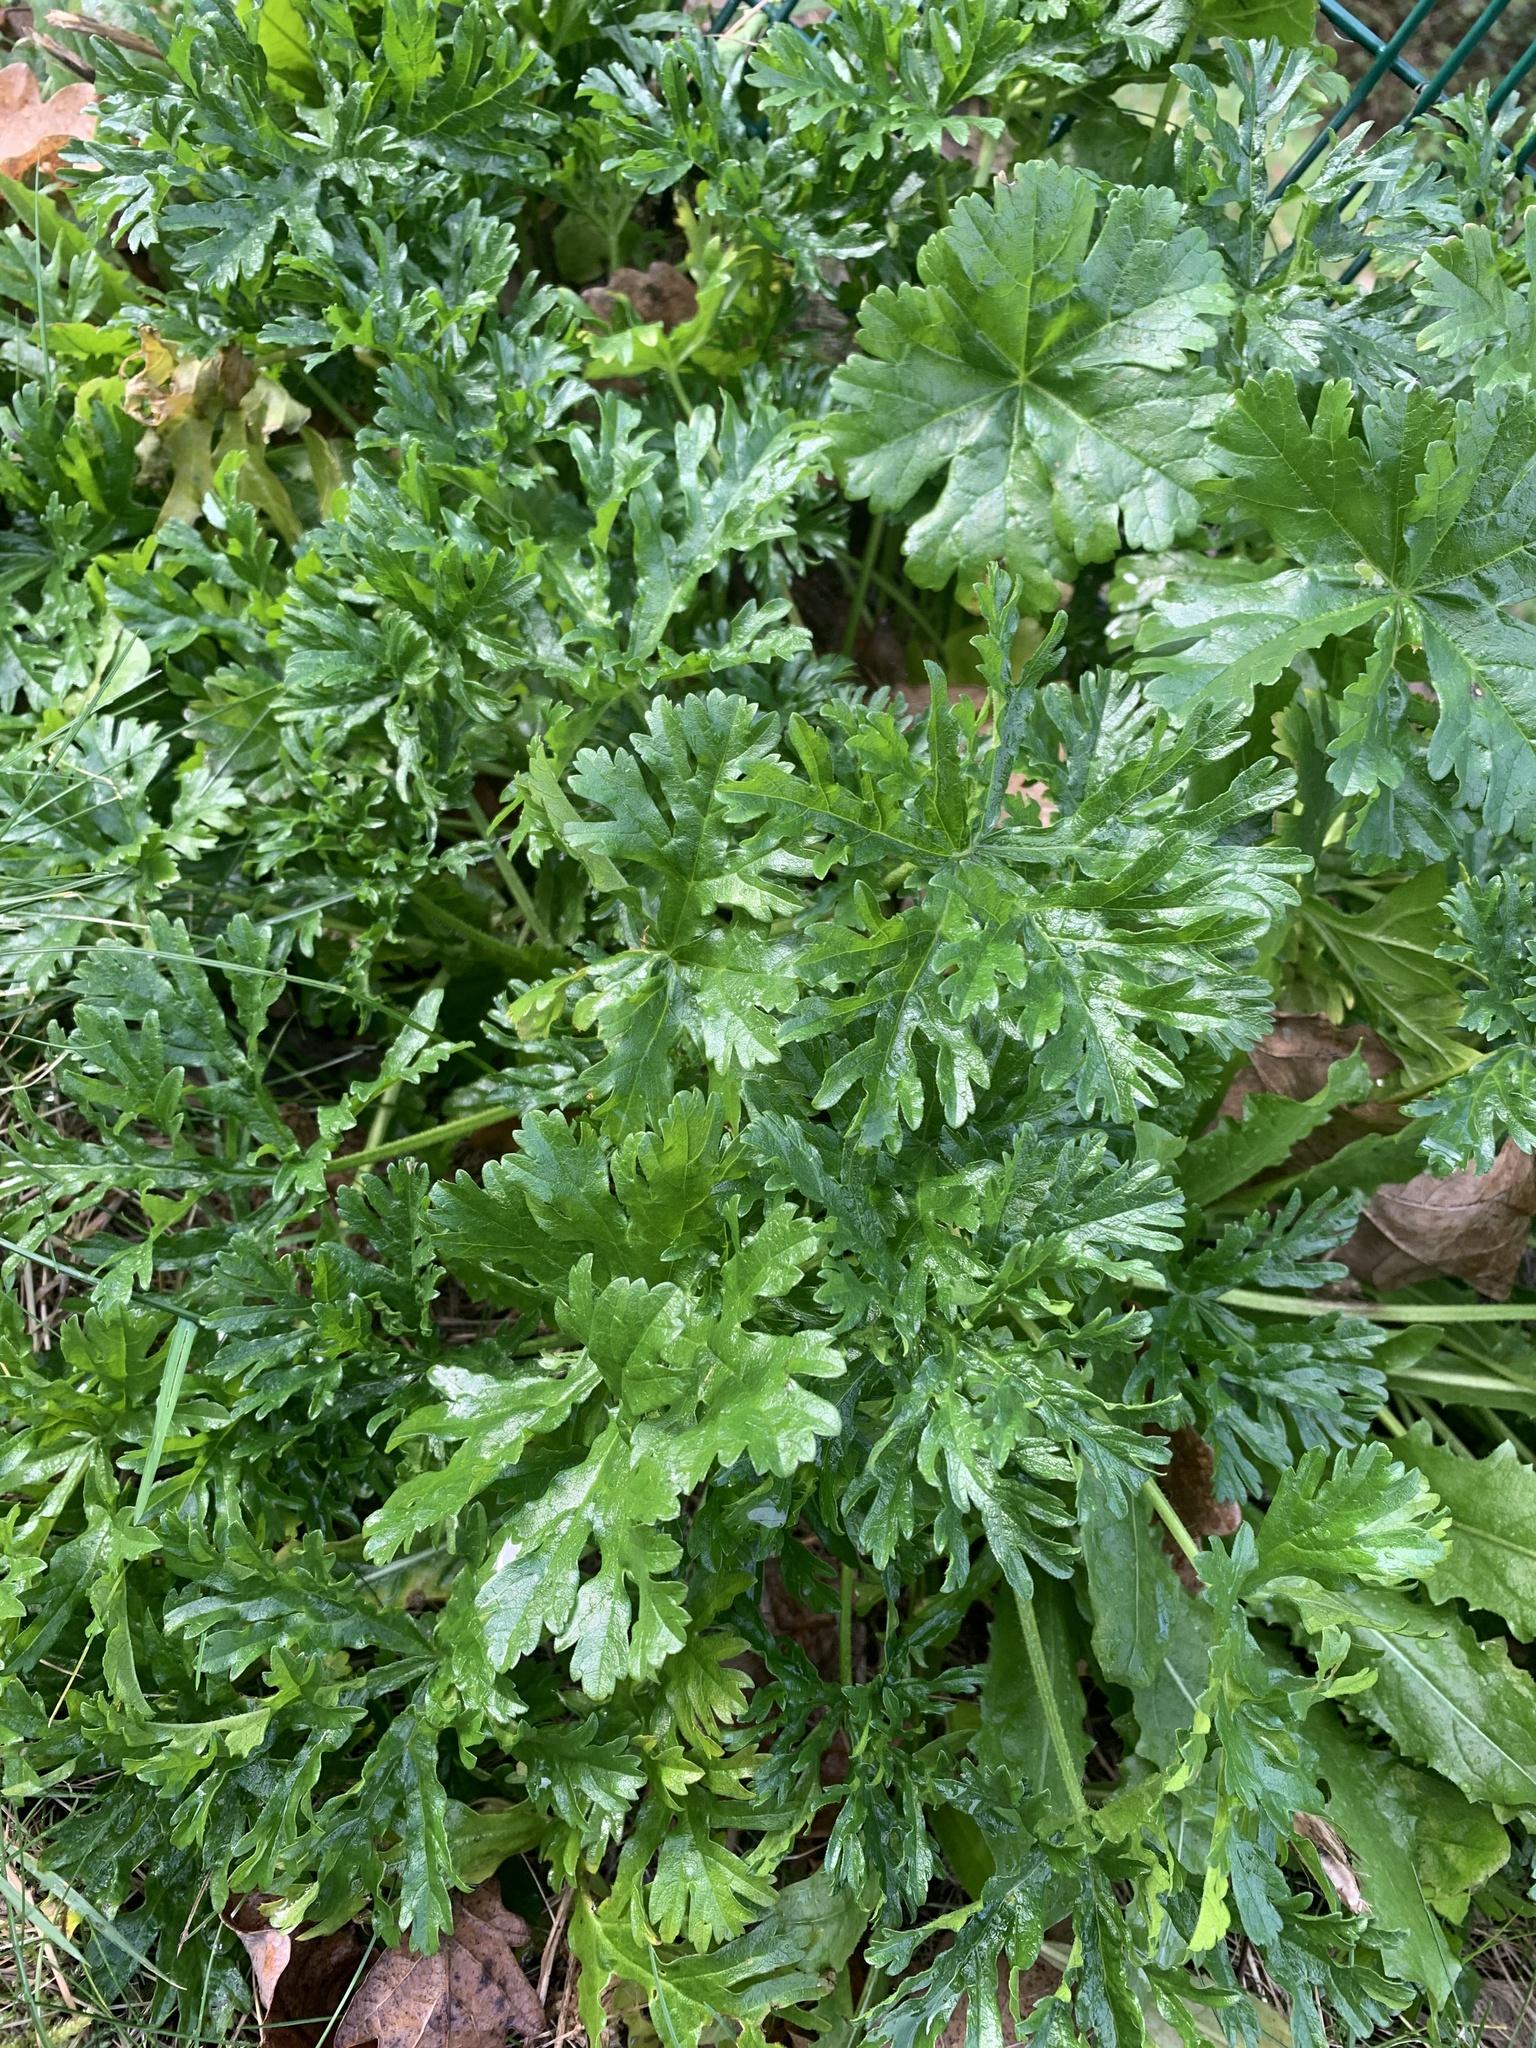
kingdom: Plantae
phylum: Tracheophyta
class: Magnoliopsida
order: Asterales
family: Asteraceae
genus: Jacobaea
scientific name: Jacobaea vulgaris
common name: Stinking willie
